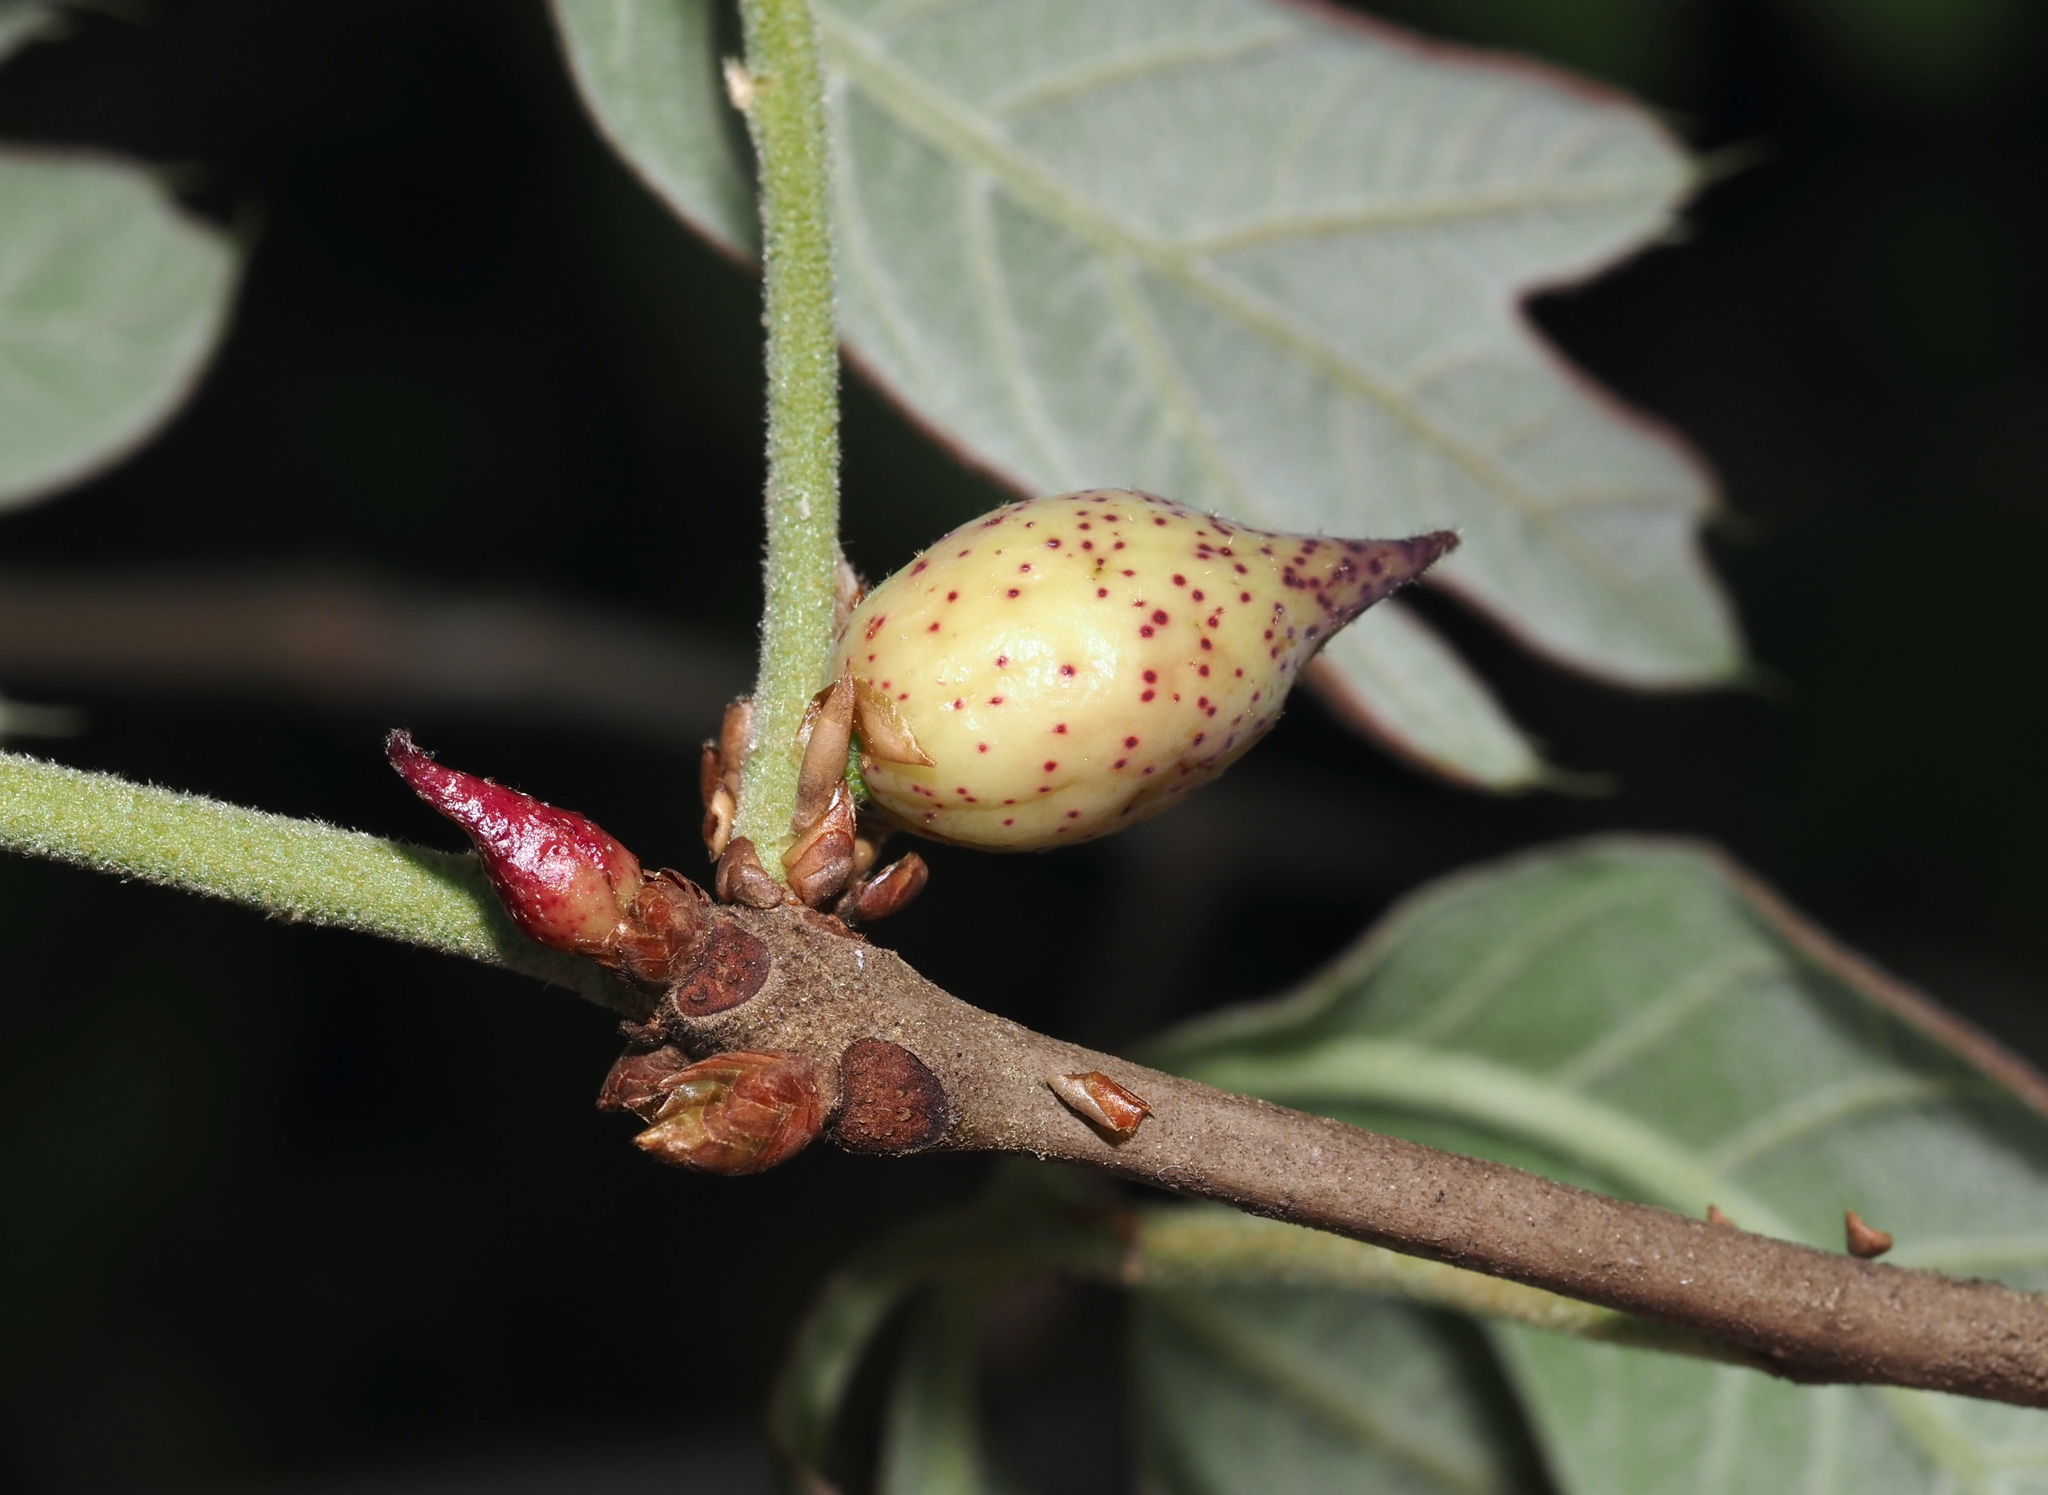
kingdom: Animalia
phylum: Arthropoda
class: Insecta
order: Hymenoptera
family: Cynipidae
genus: Amphibolips
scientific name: Amphibolips
